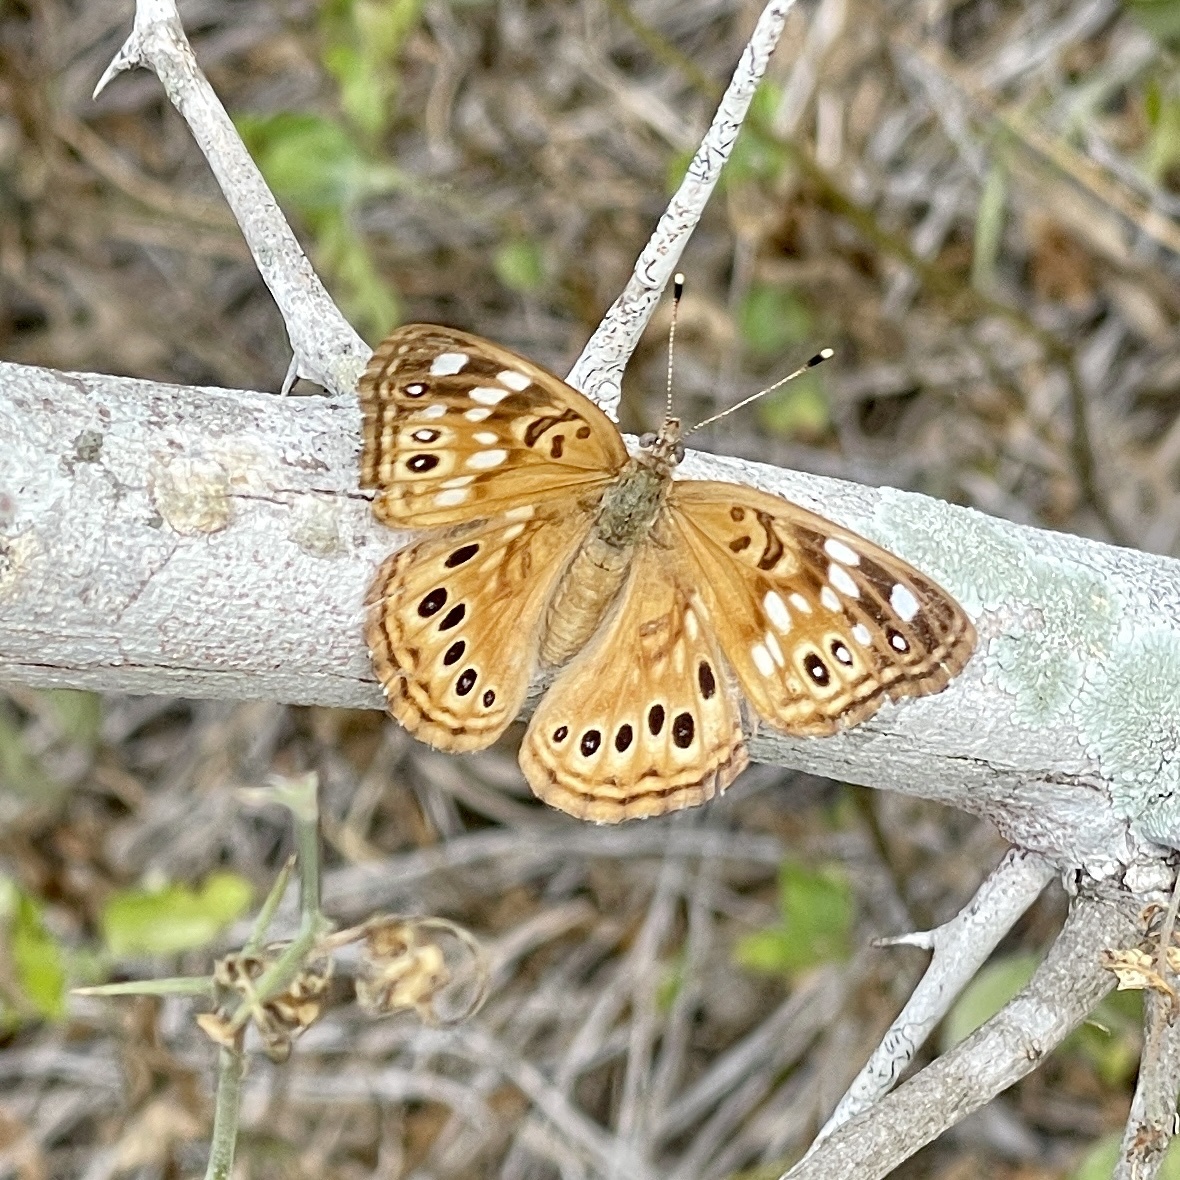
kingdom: Animalia
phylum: Arthropoda
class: Insecta
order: Lepidoptera
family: Nymphalidae
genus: Asterocampa
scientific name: Asterocampa celtis
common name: Hackberry emperor
